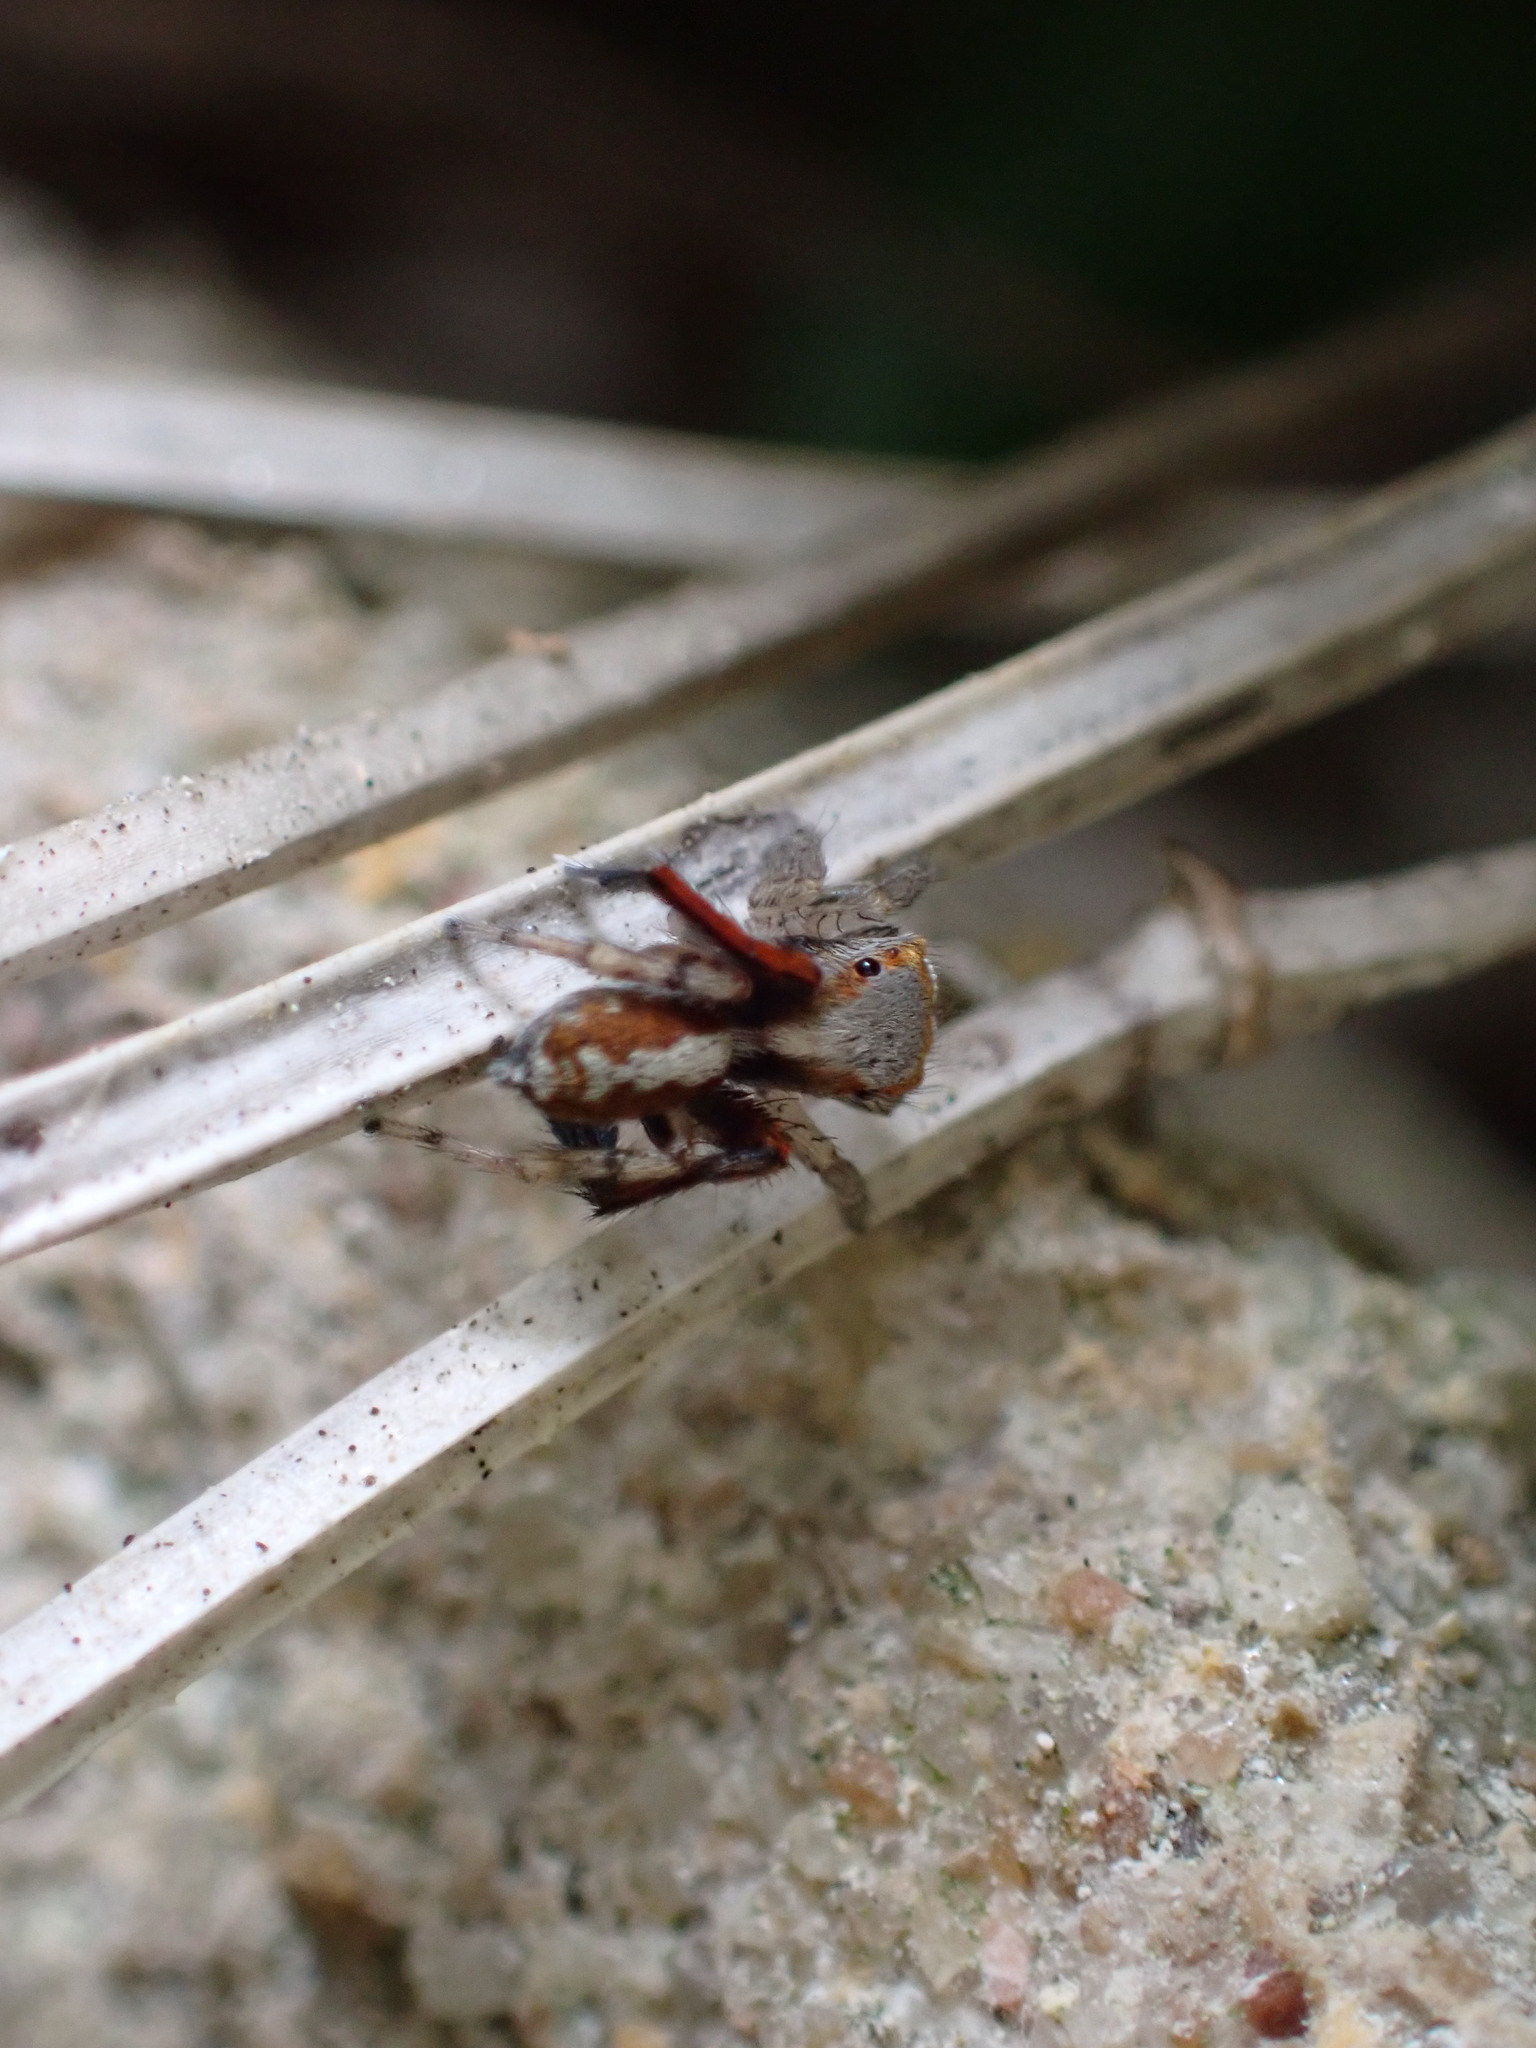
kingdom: Animalia
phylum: Arthropoda
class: Arachnida
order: Araneae
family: Salticidae
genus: Saitis
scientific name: Saitis barbipes
